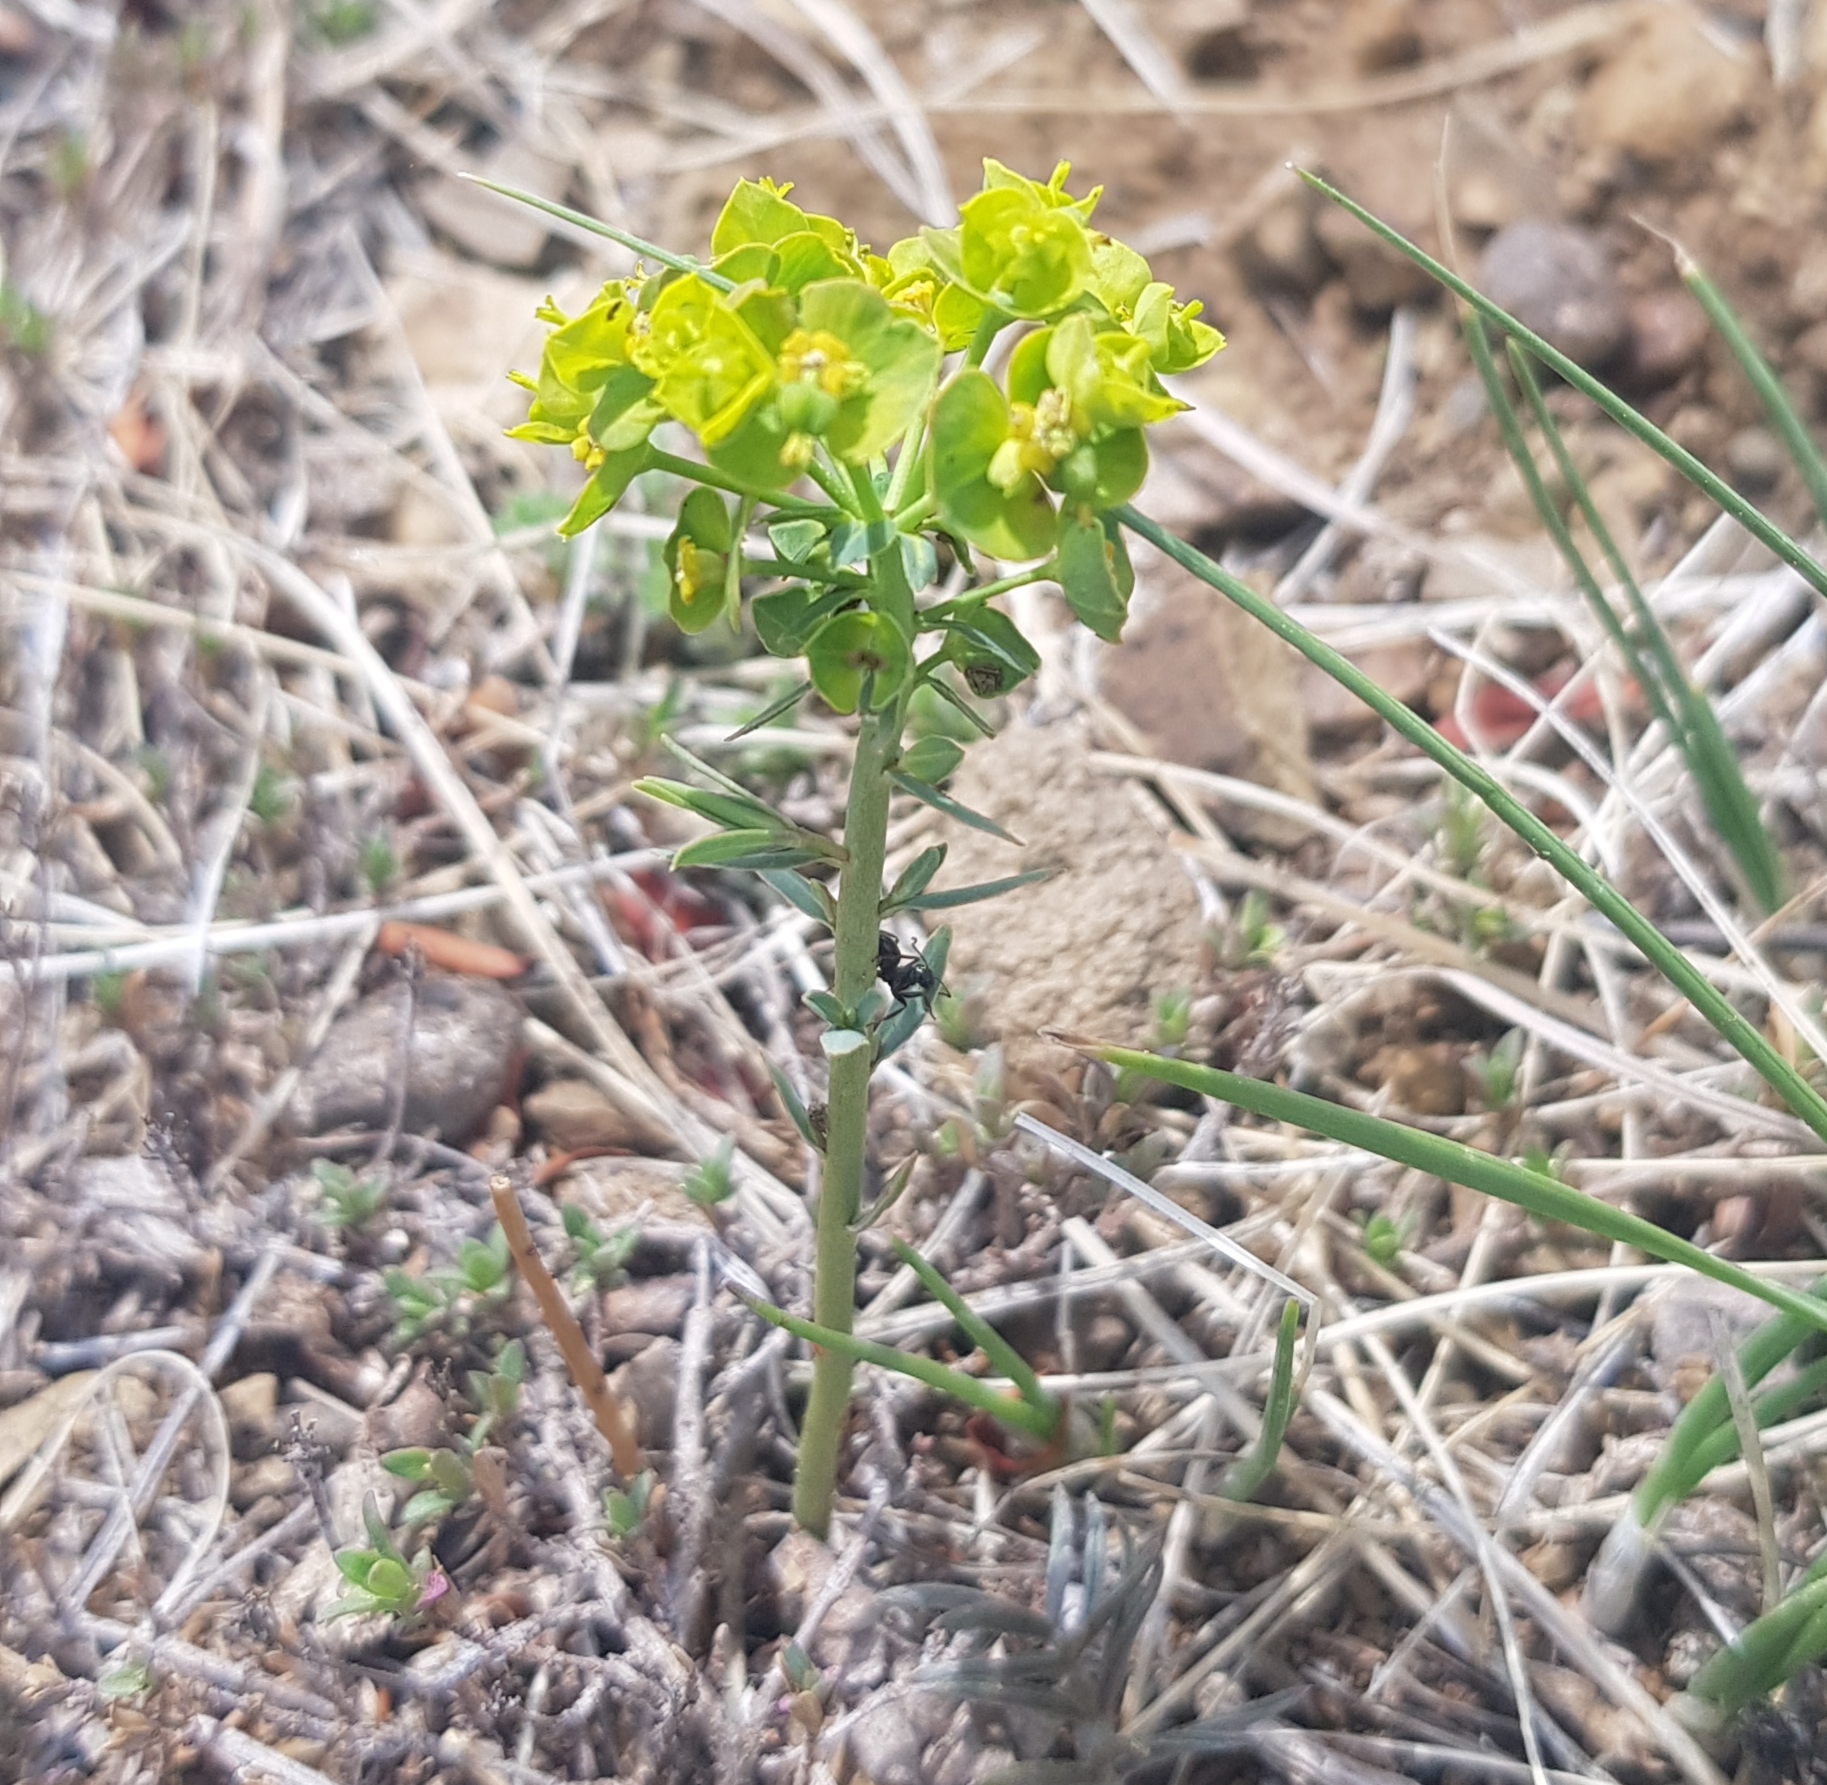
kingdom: Plantae
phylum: Tracheophyta
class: Magnoliopsida
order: Malpighiales
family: Euphorbiaceae
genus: Euphorbia
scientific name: Euphorbia virgata
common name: Leafy spurge
